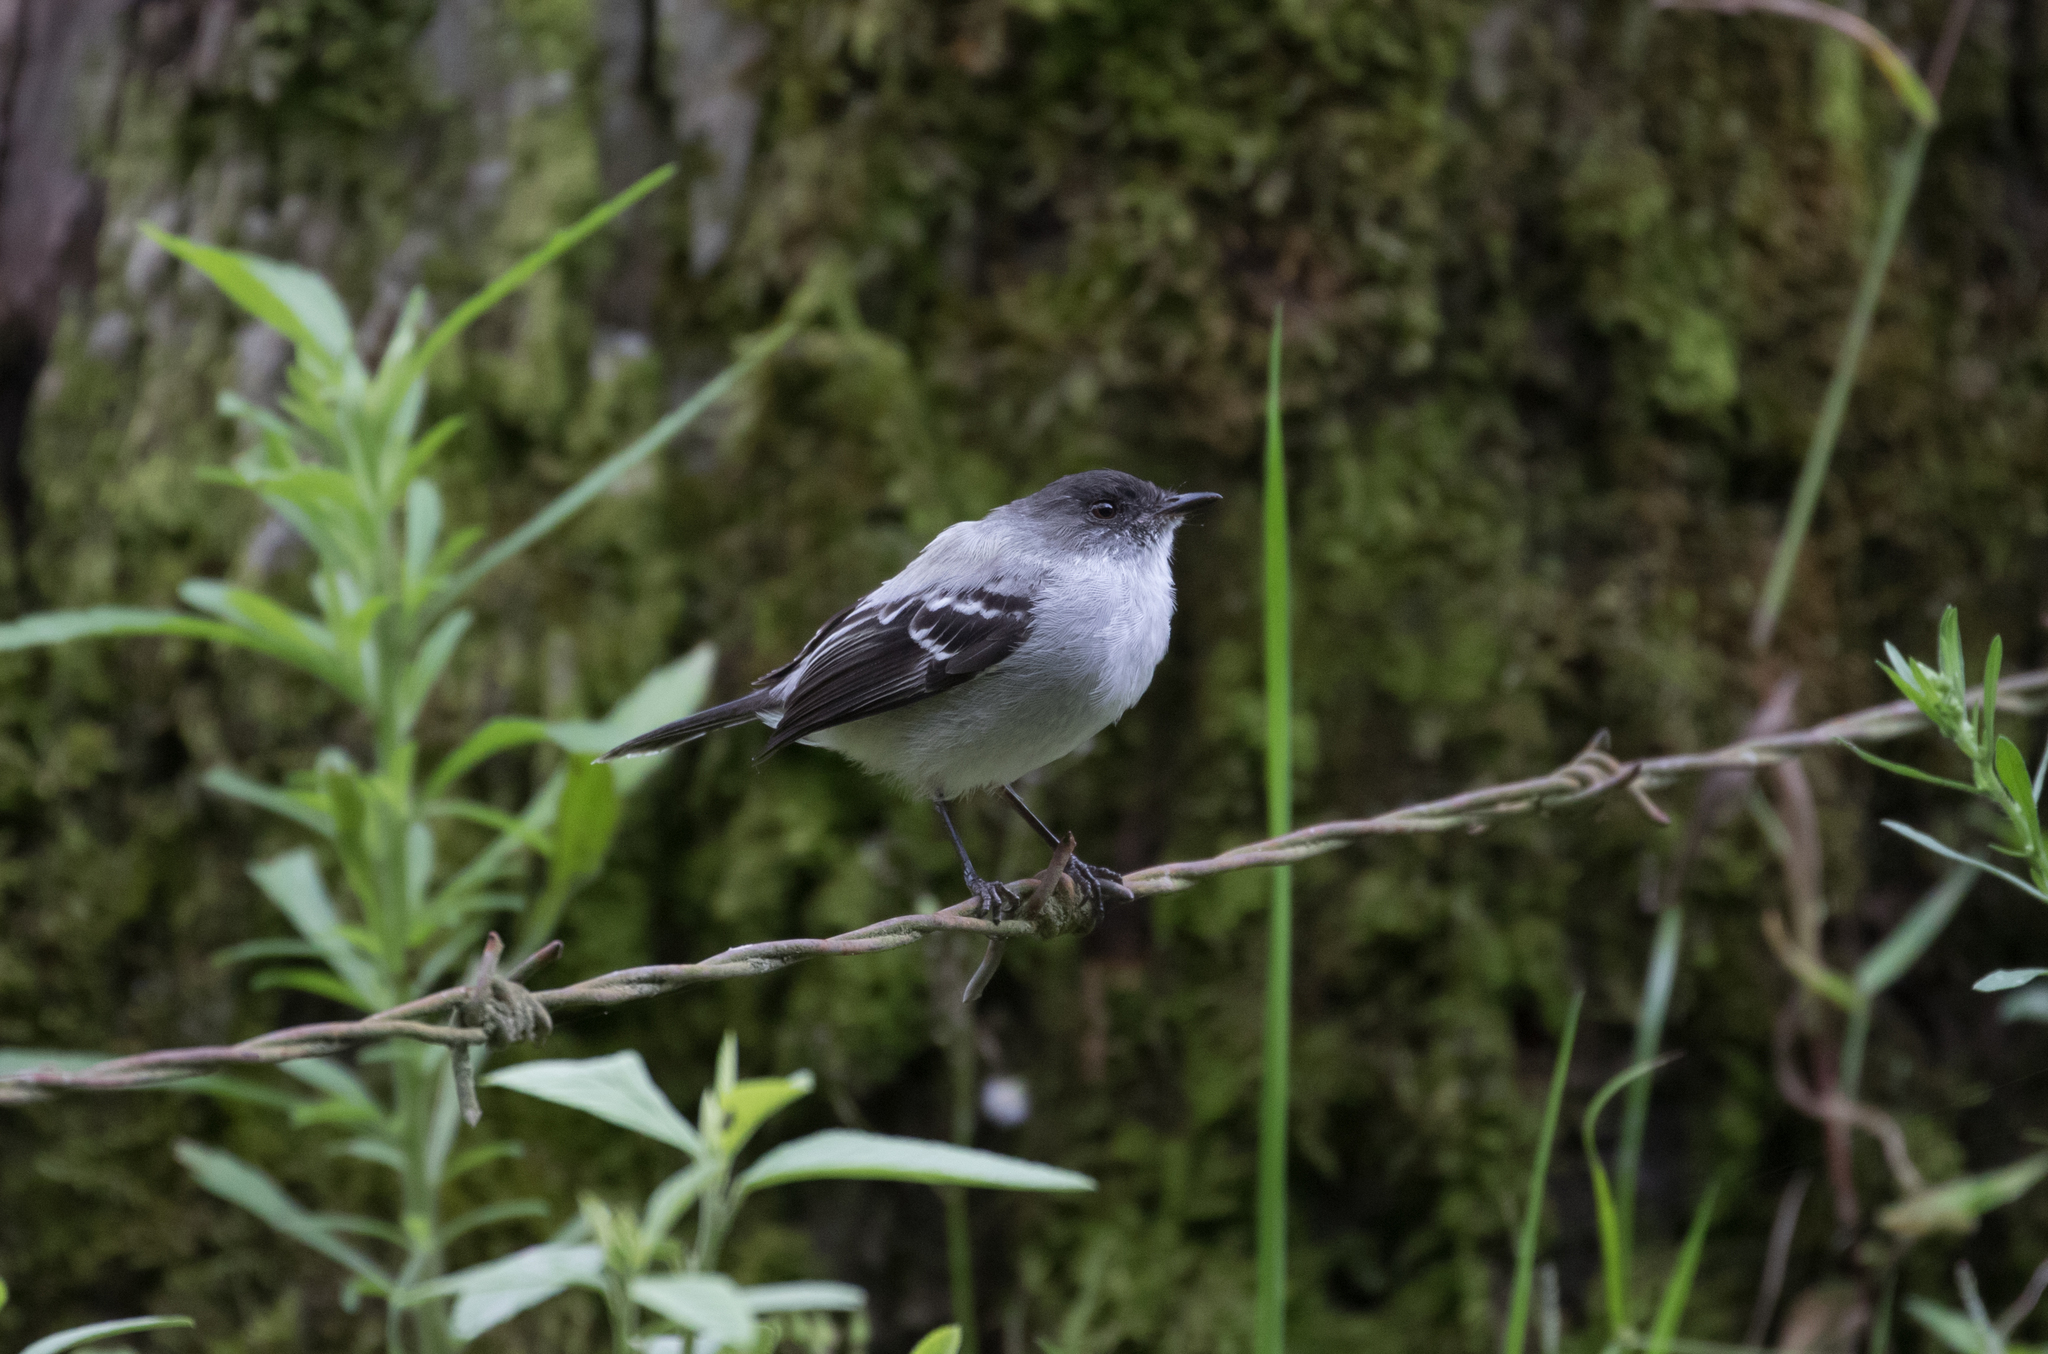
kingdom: Animalia
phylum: Chordata
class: Aves
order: Passeriformes
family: Tyrannidae
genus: Serpophaga
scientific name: Serpophaga cinerea
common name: Torrent tyrannulet
